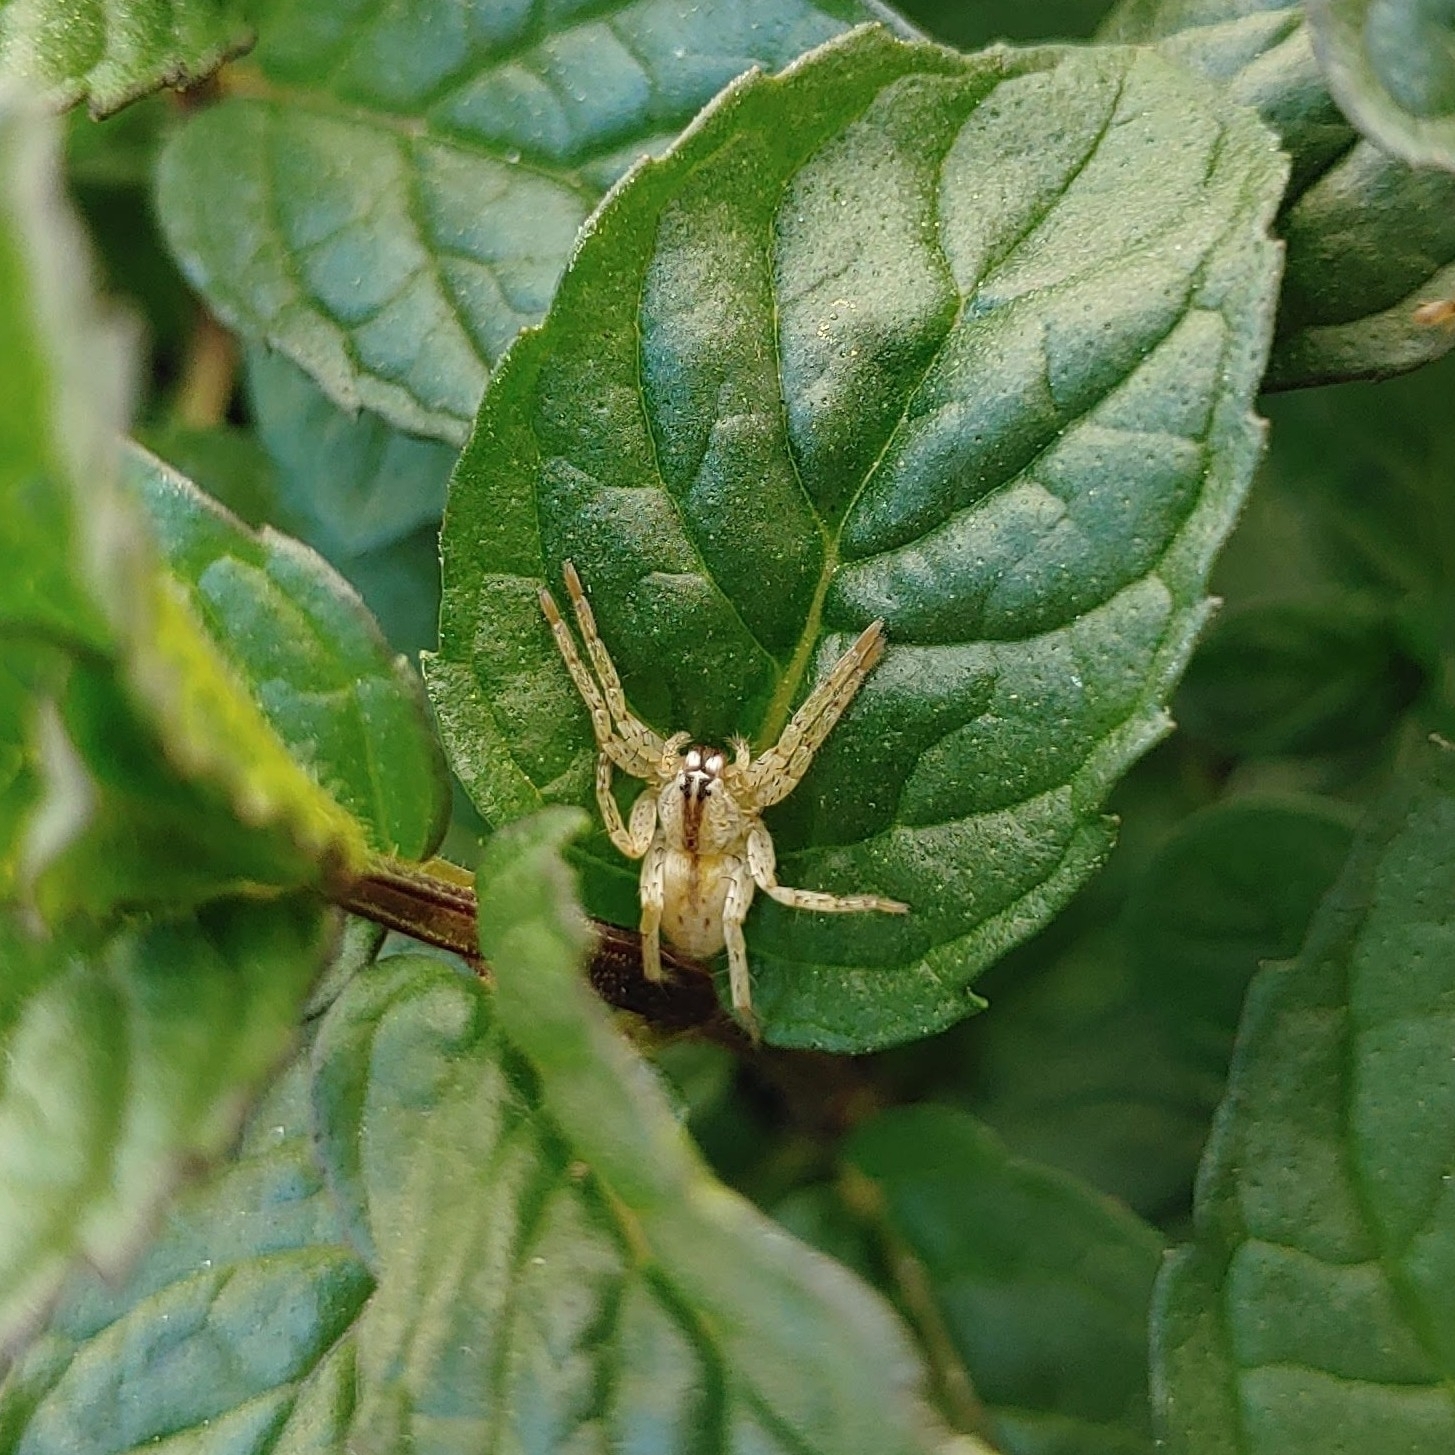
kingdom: Animalia
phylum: Arthropoda
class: Arachnida
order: Araneae
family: Anyphaenidae
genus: Arachosia
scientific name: Arachosia praesignis
